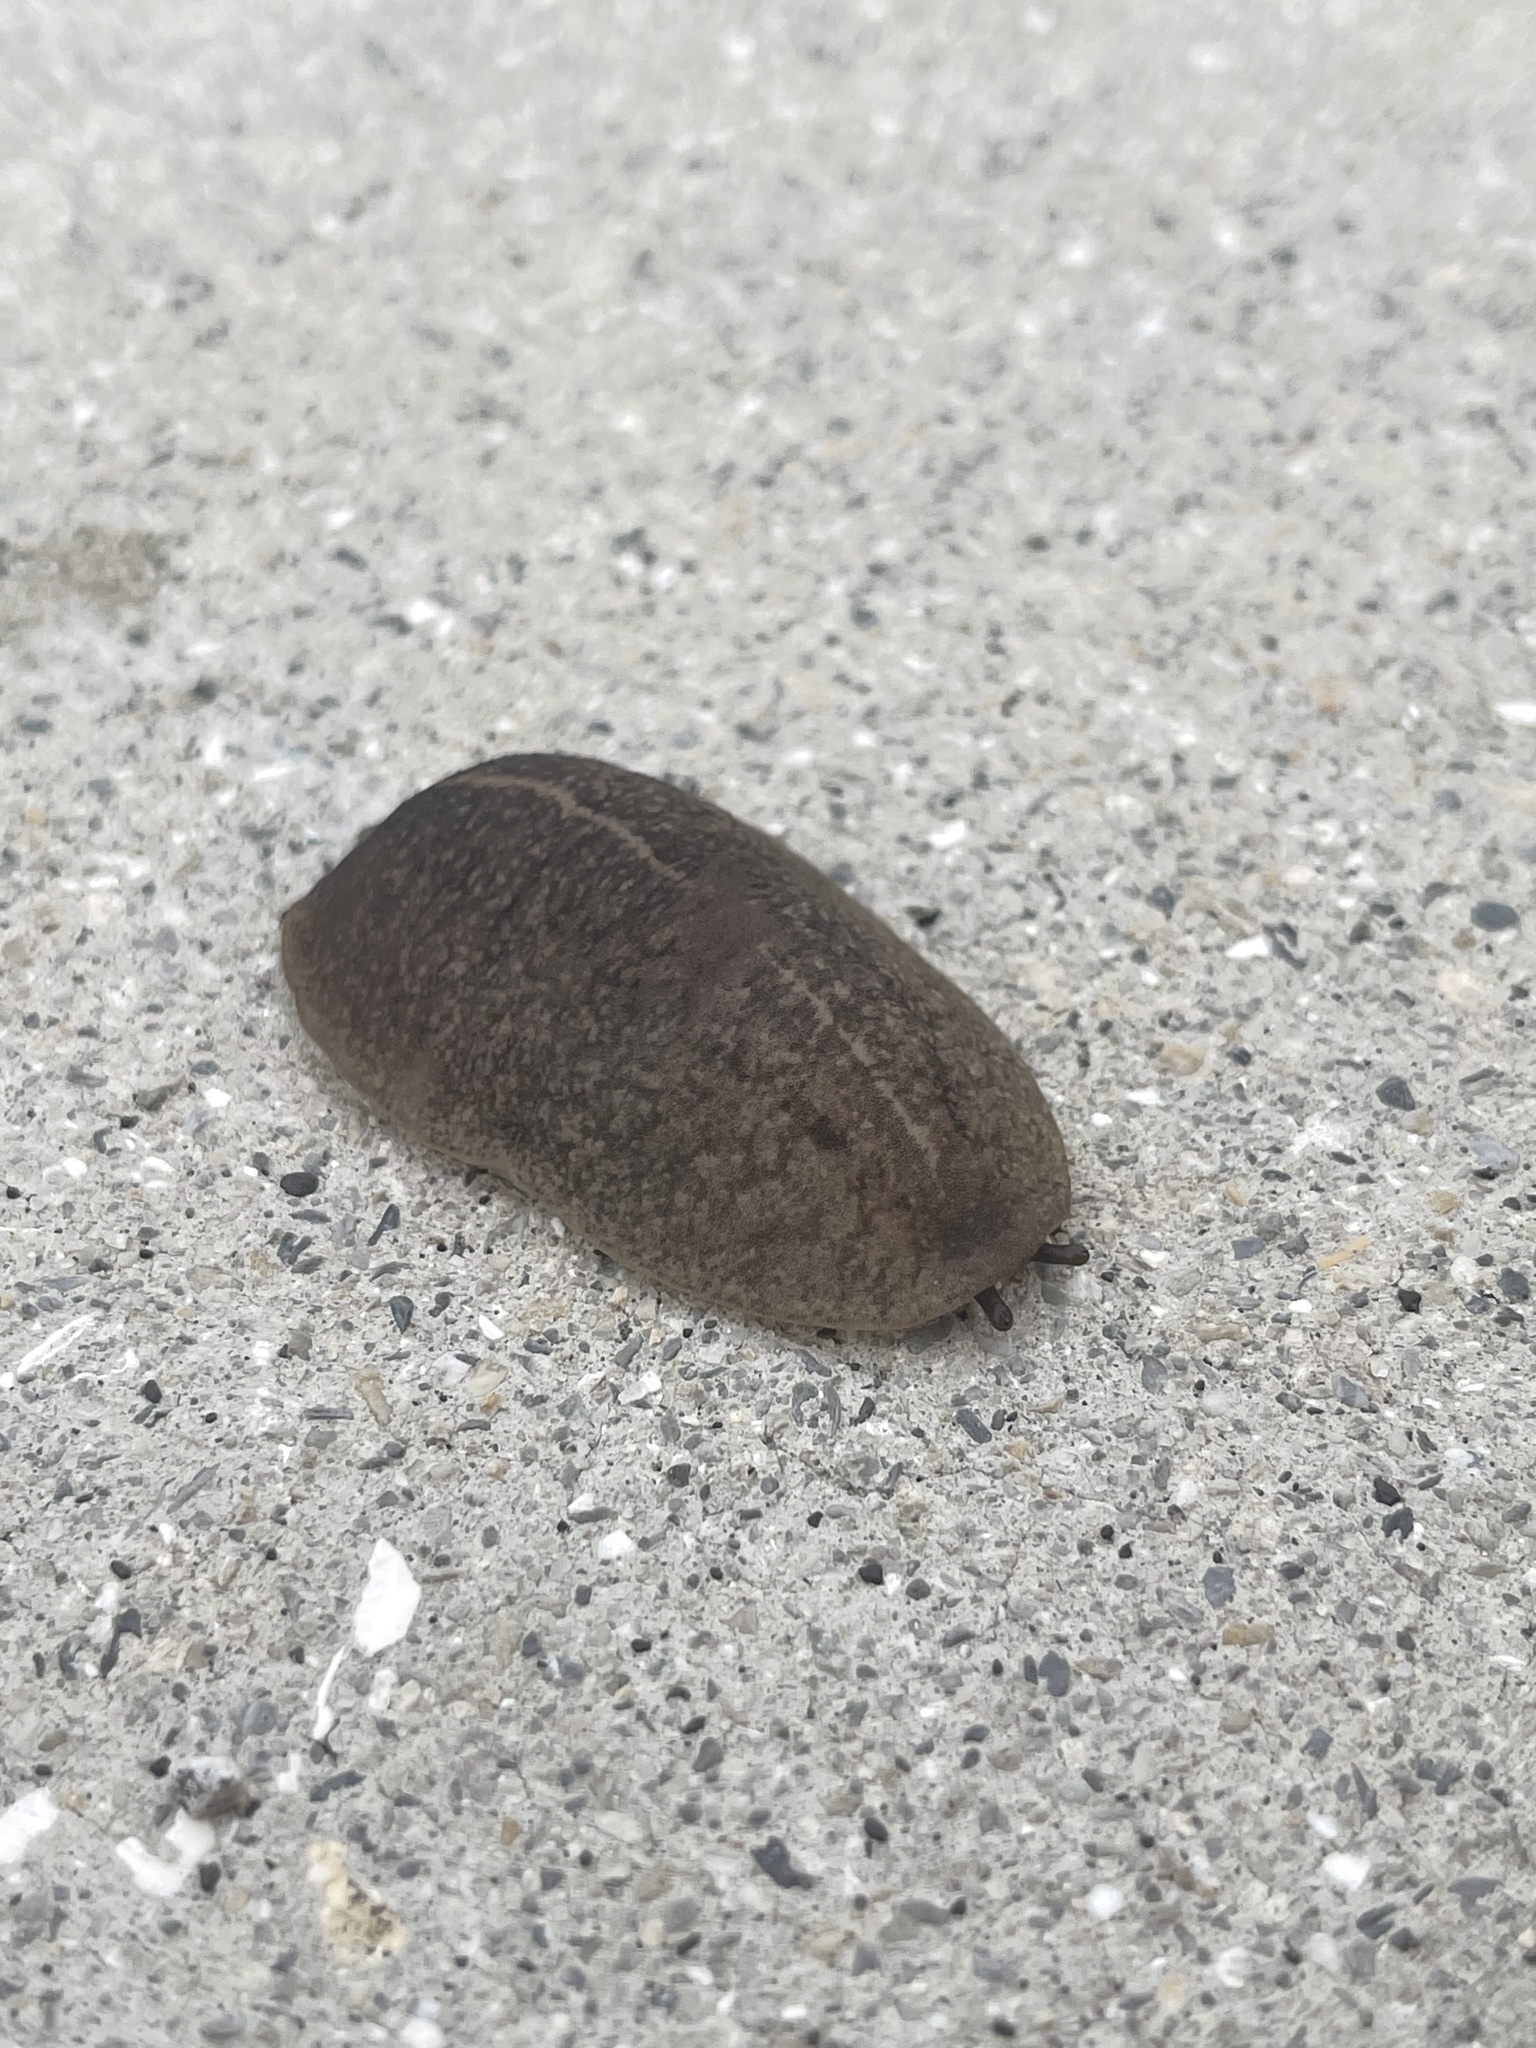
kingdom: Animalia
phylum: Mollusca
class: Gastropoda
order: Systellommatophora
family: Veronicellidae
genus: Leidyula
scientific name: Leidyula floridana
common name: Florida leatherleaf
